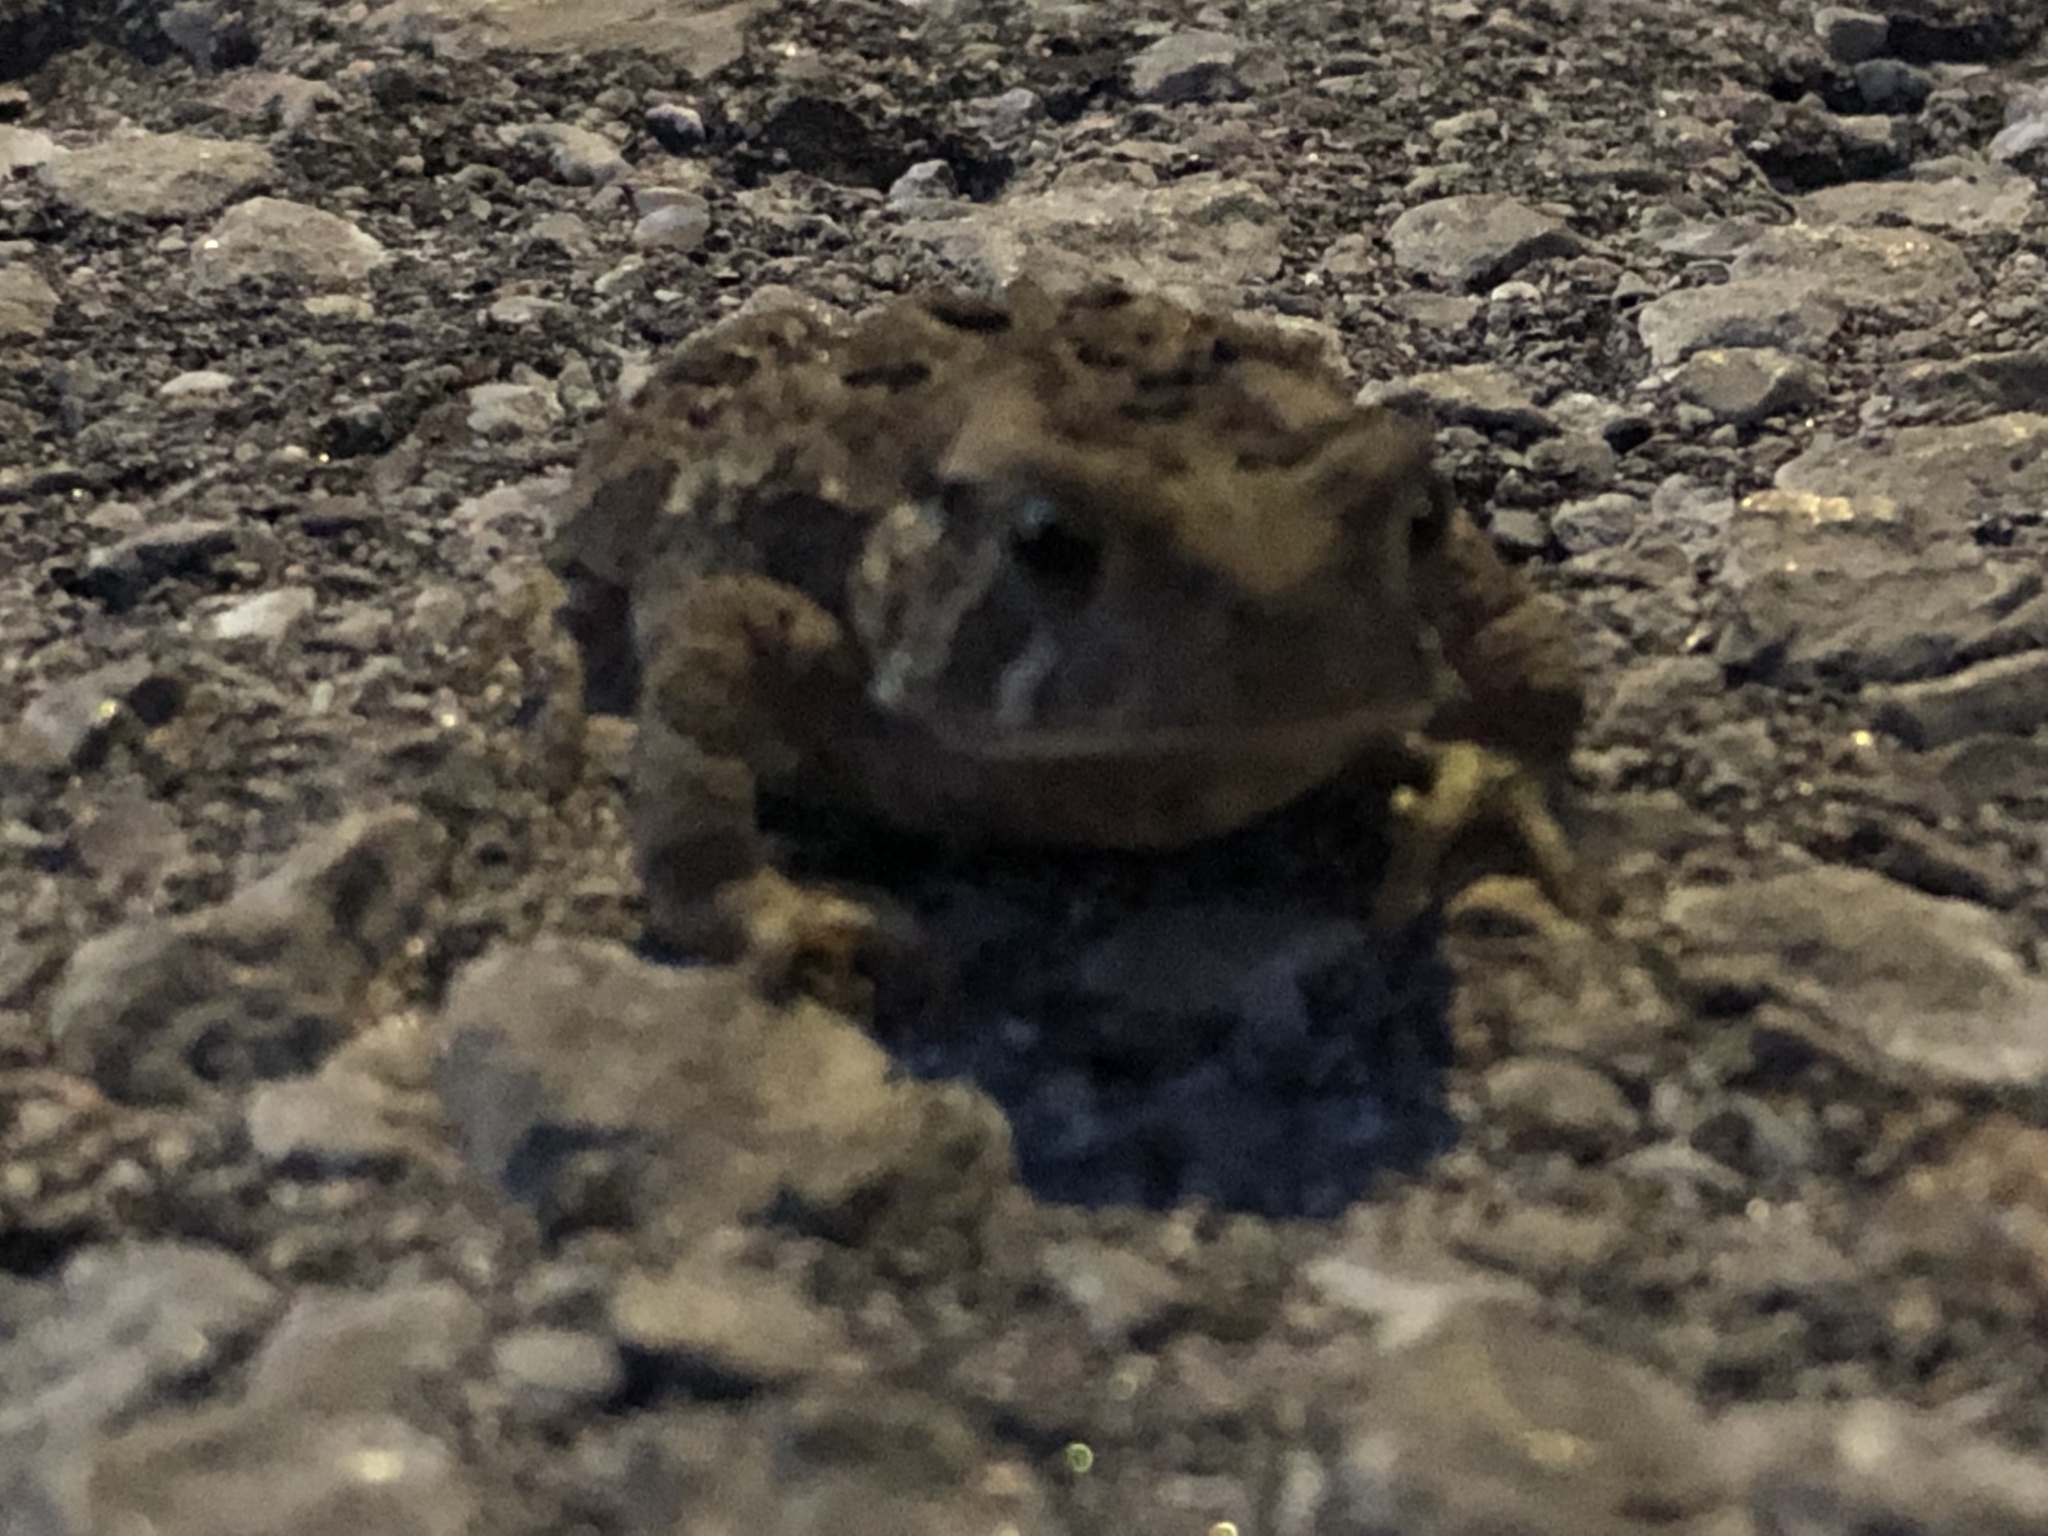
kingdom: Animalia
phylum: Chordata
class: Amphibia
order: Anura
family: Bufonidae
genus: Anaxyrus
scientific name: Anaxyrus americanus
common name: American toad
